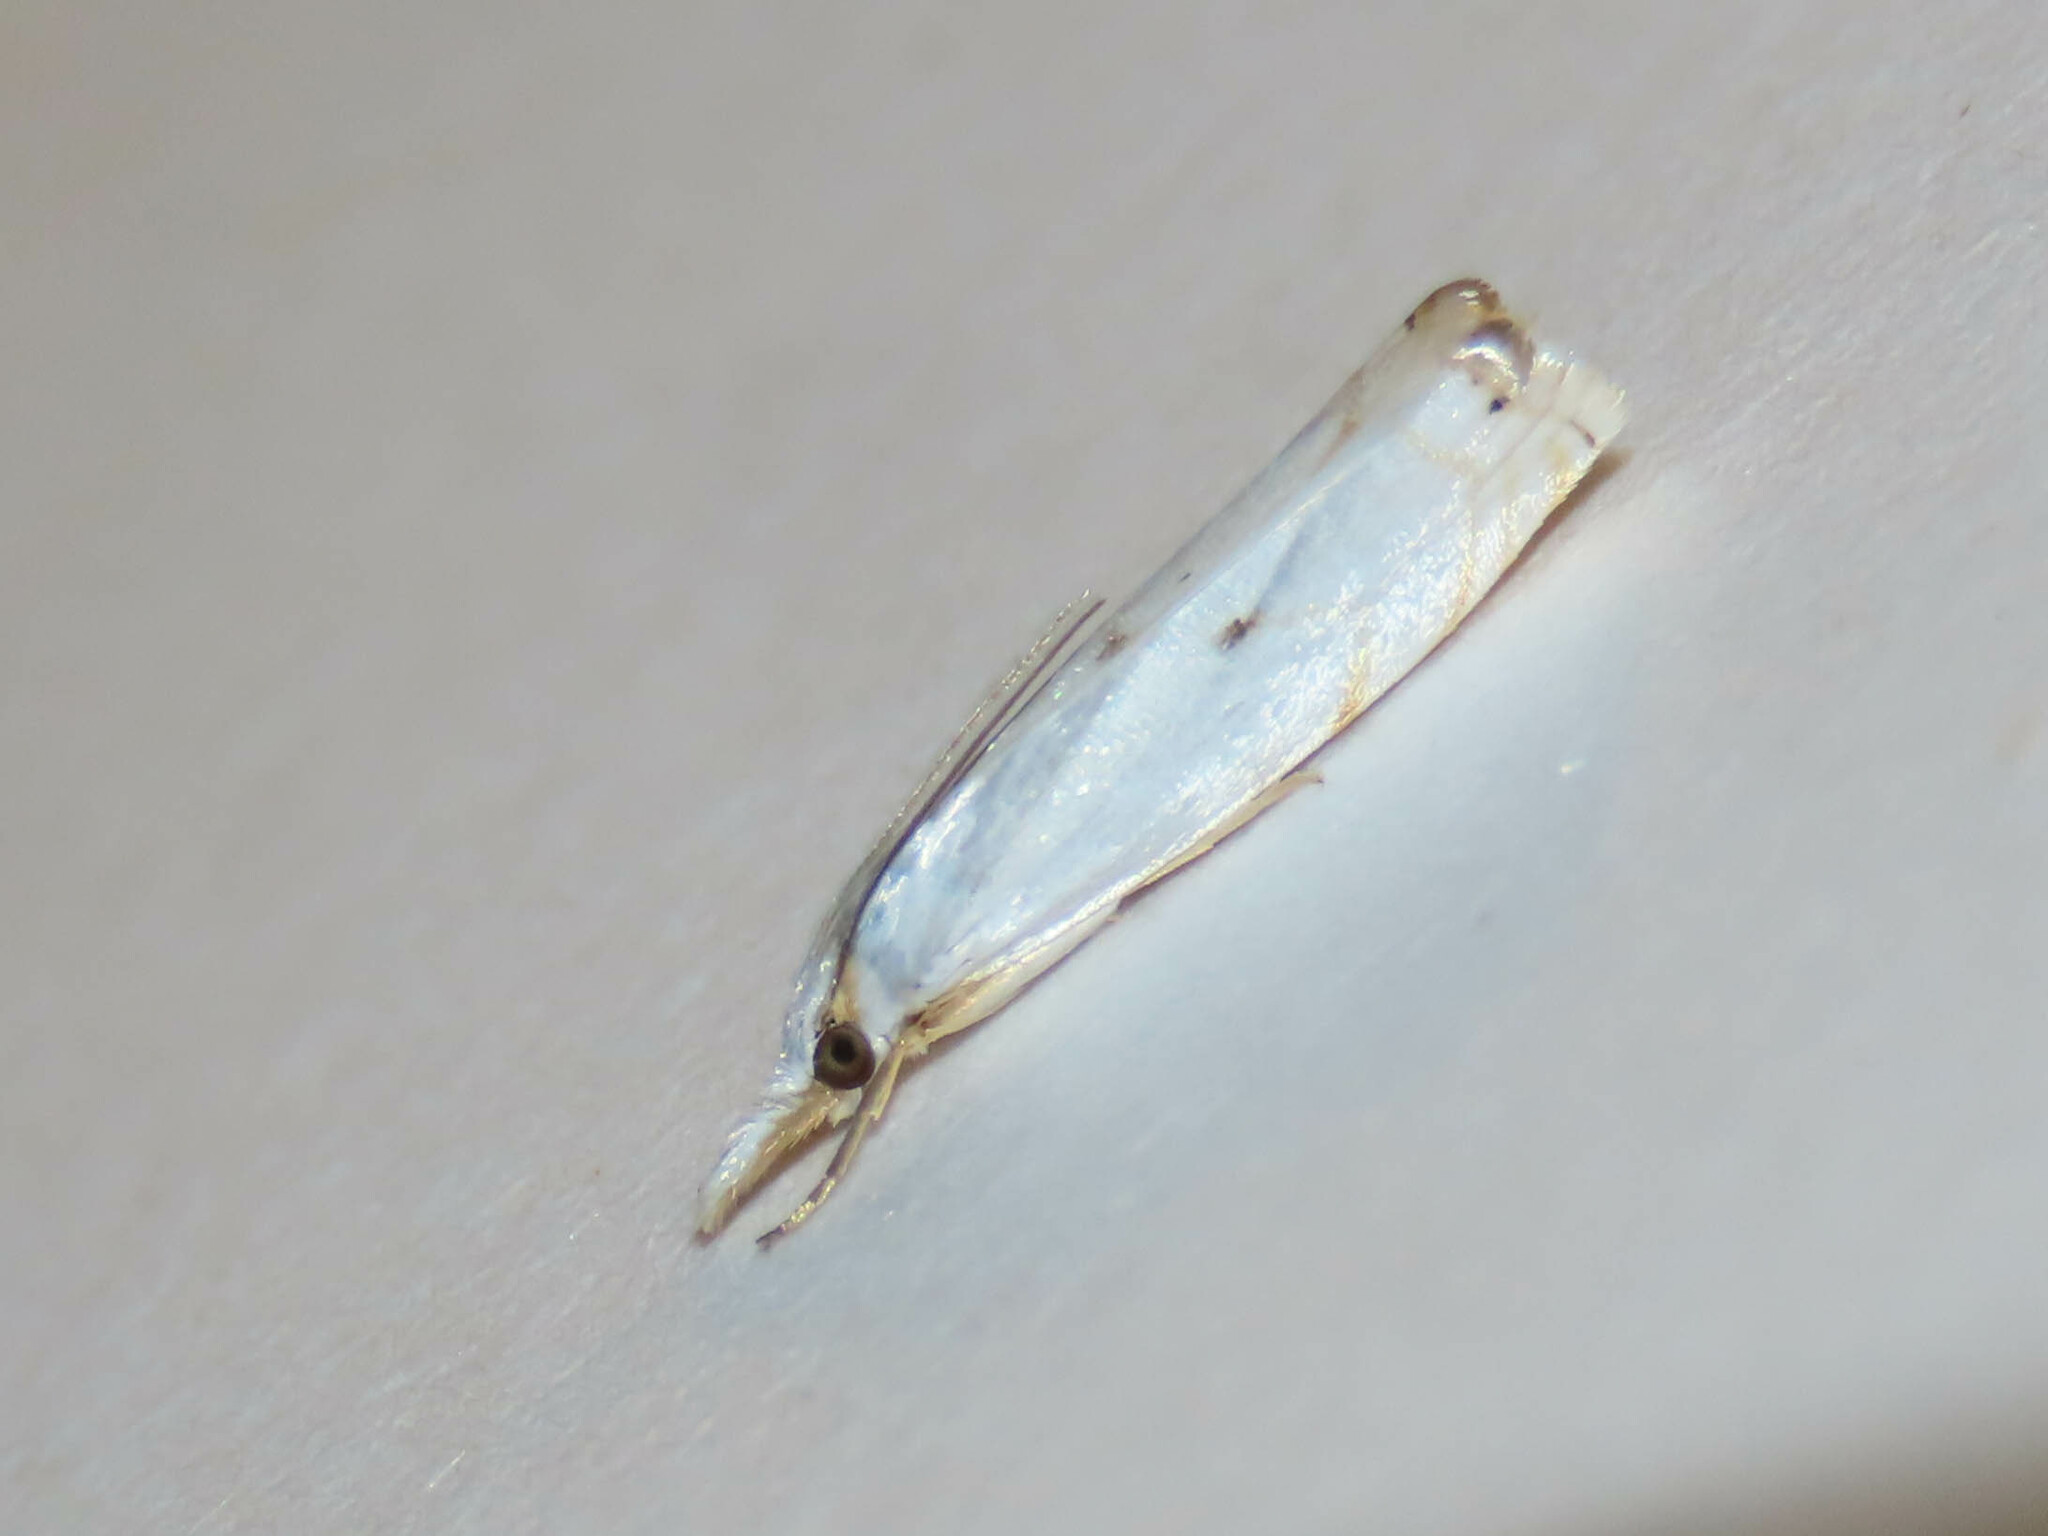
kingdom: Animalia
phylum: Arthropoda
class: Insecta
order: Lepidoptera
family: Crambidae
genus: Microcrambus
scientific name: Microcrambus biguttellus
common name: Gold-stripe grass-veneer moth
